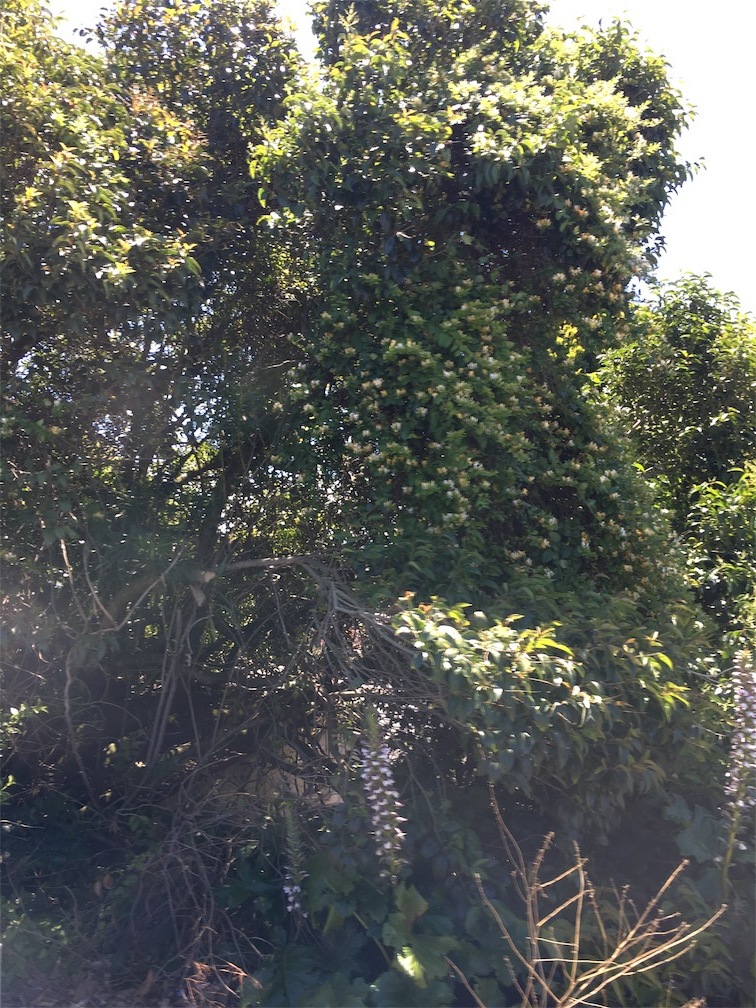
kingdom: Plantae
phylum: Tracheophyta
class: Magnoliopsida
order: Dipsacales
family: Caprifoliaceae
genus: Lonicera
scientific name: Lonicera japonica
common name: Japanese honeysuckle
